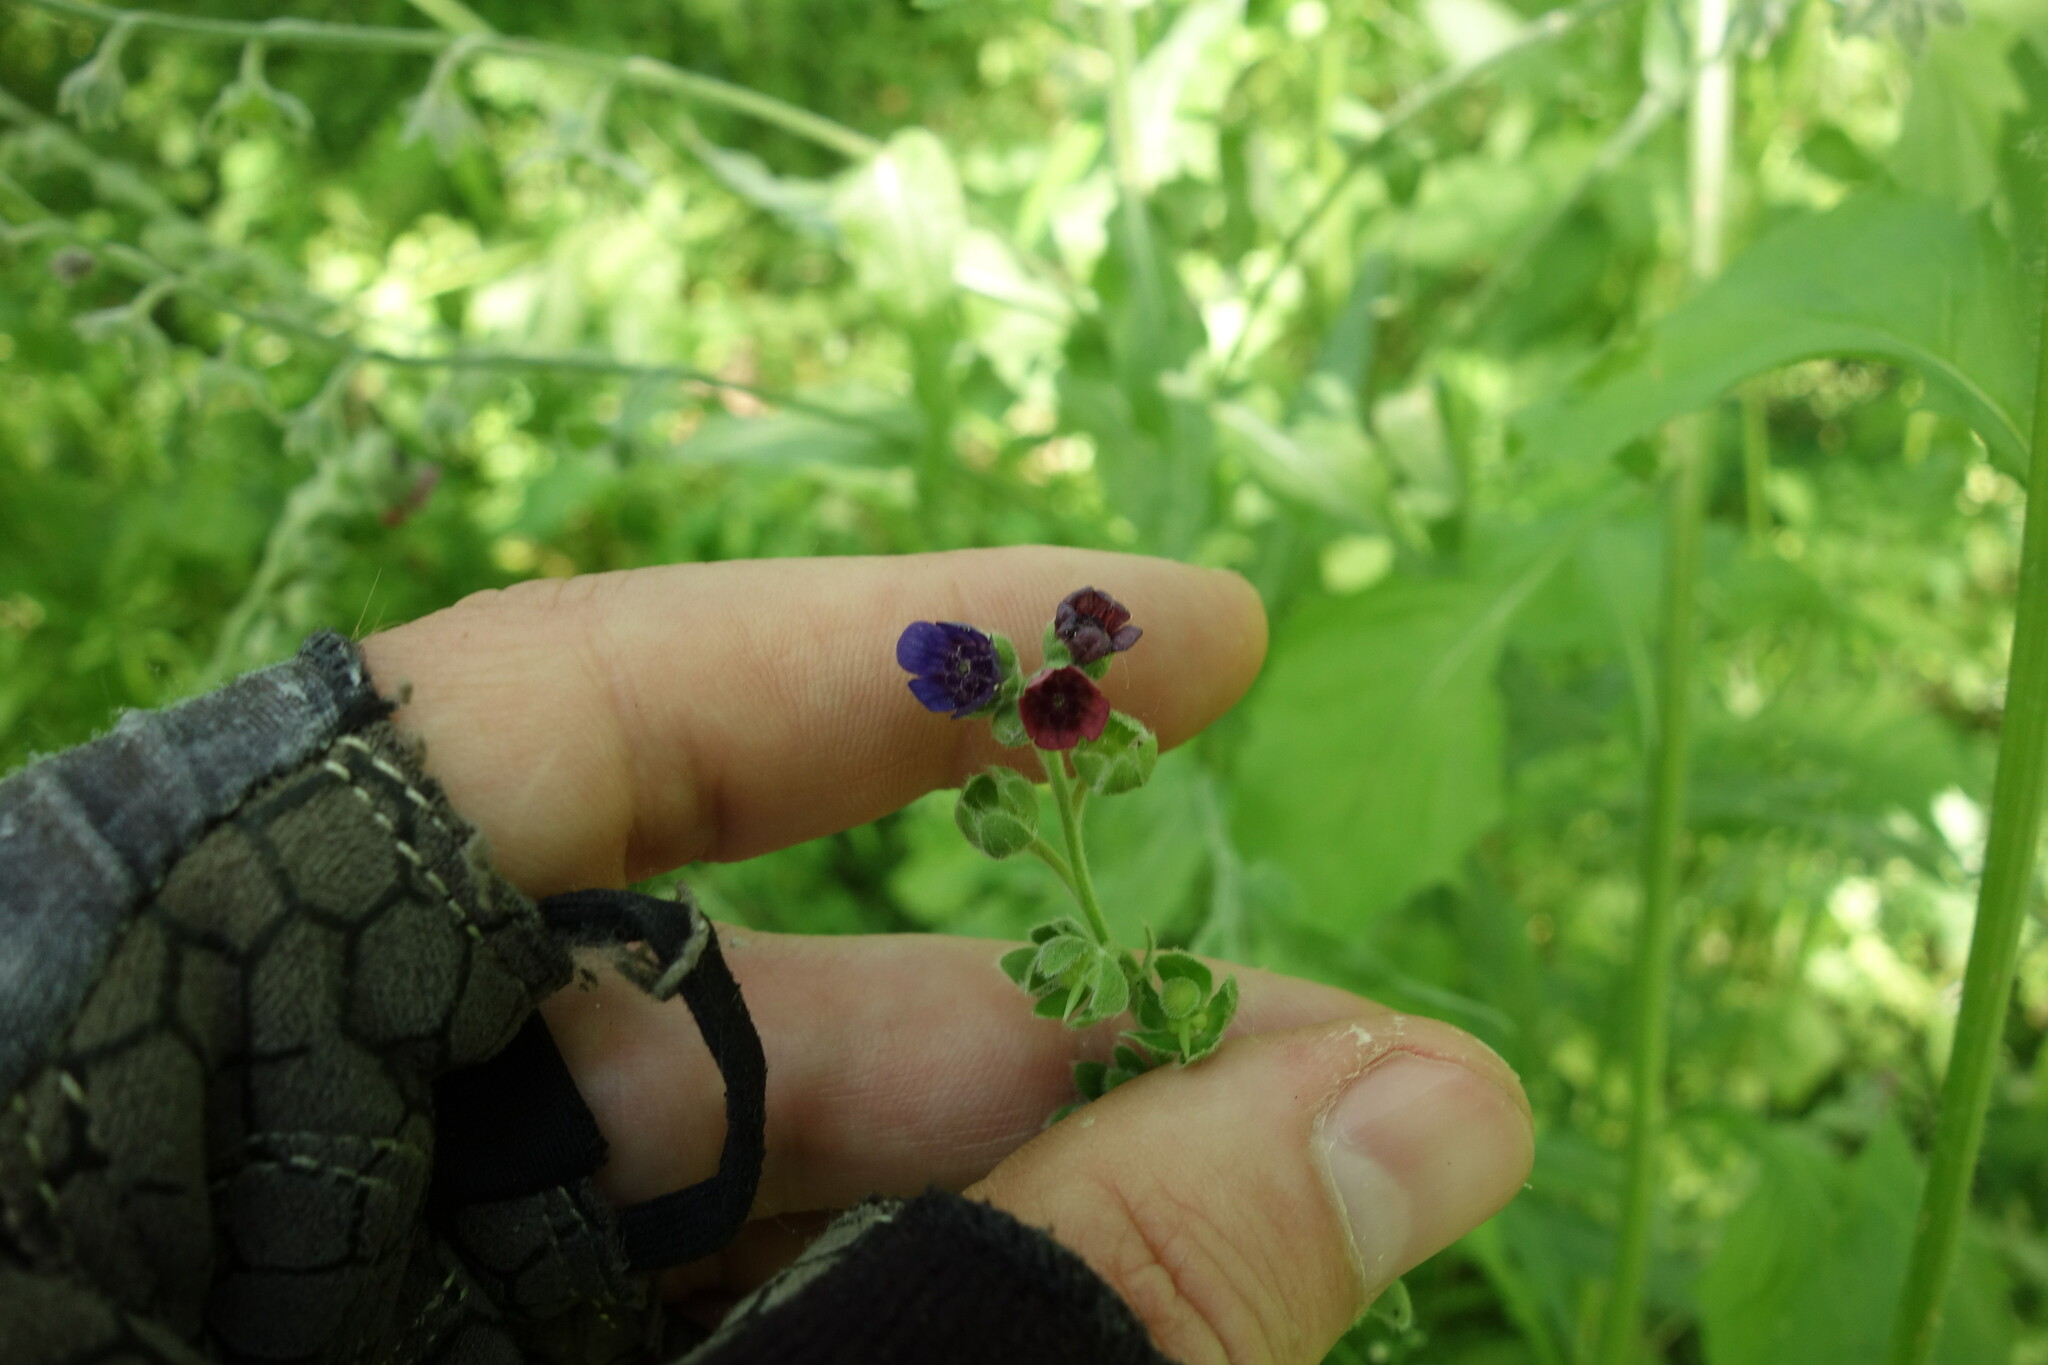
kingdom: Plantae
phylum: Tracheophyta
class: Magnoliopsida
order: Boraginales
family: Boraginaceae
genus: Cynoglossum
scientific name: Cynoglossum officinale
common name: Hound's-tongue
